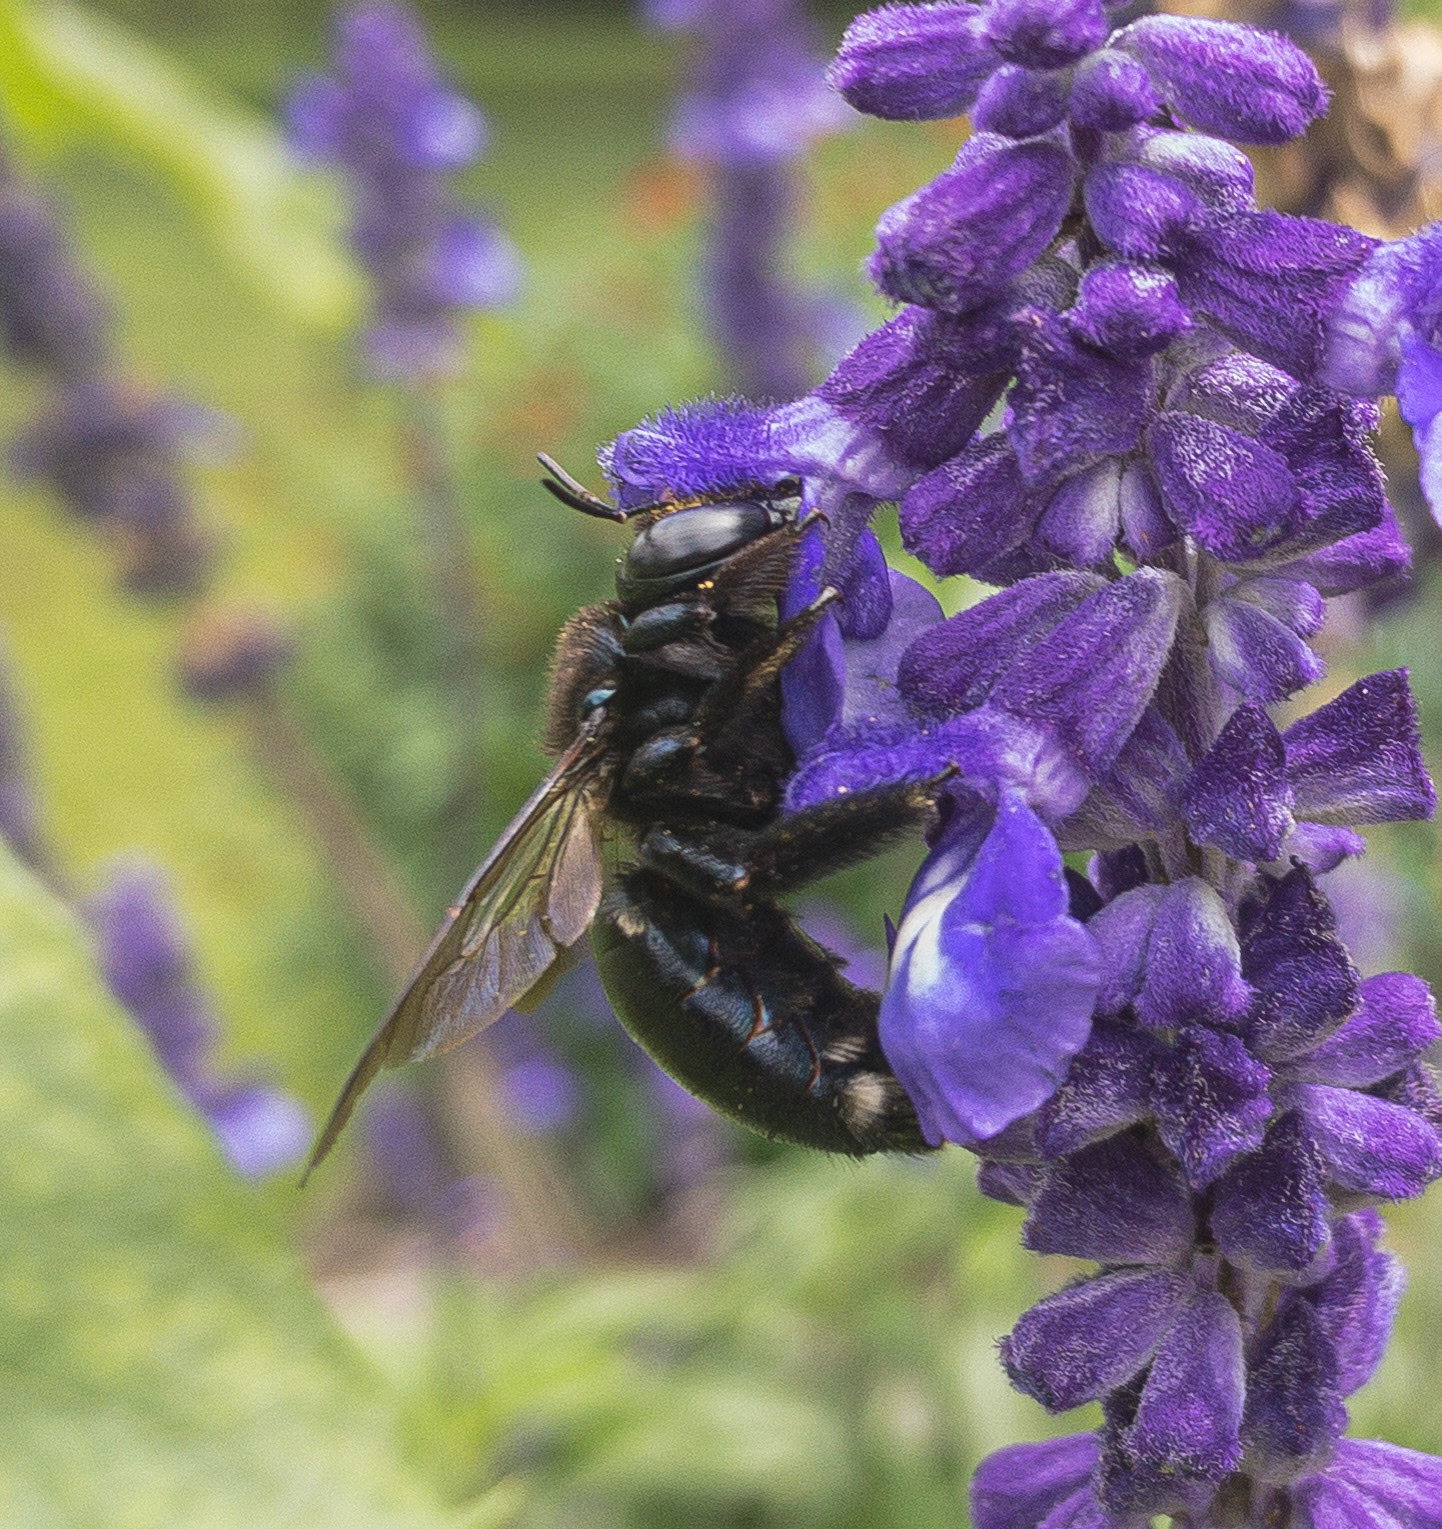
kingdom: Animalia
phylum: Arthropoda
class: Insecta
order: Hymenoptera
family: Apidae
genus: Xylocopa
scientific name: Xylocopa micans
